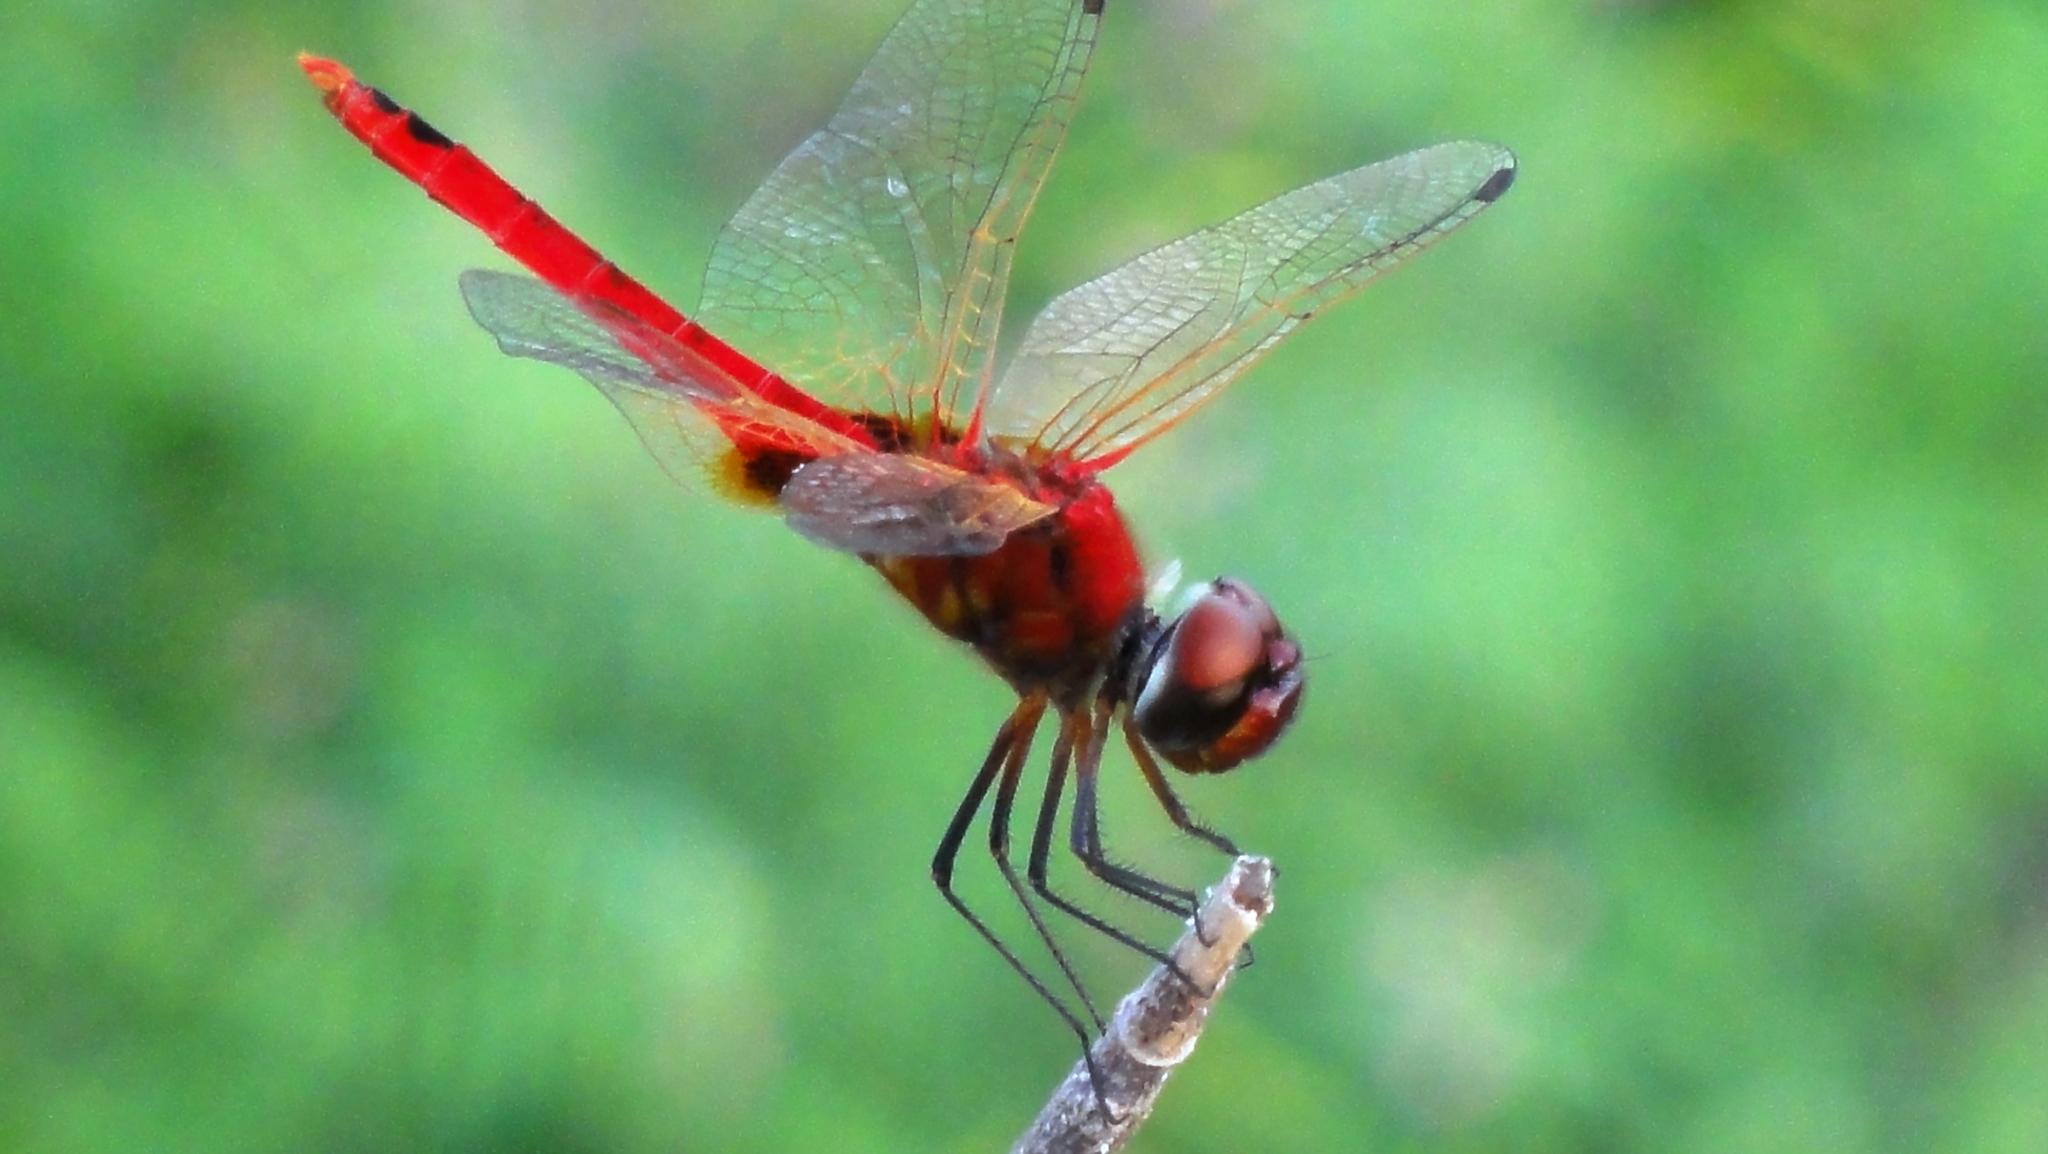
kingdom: Animalia
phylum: Arthropoda
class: Insecta
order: Odonata
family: Libellulidae
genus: Urothemis
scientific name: Urothemis signata
